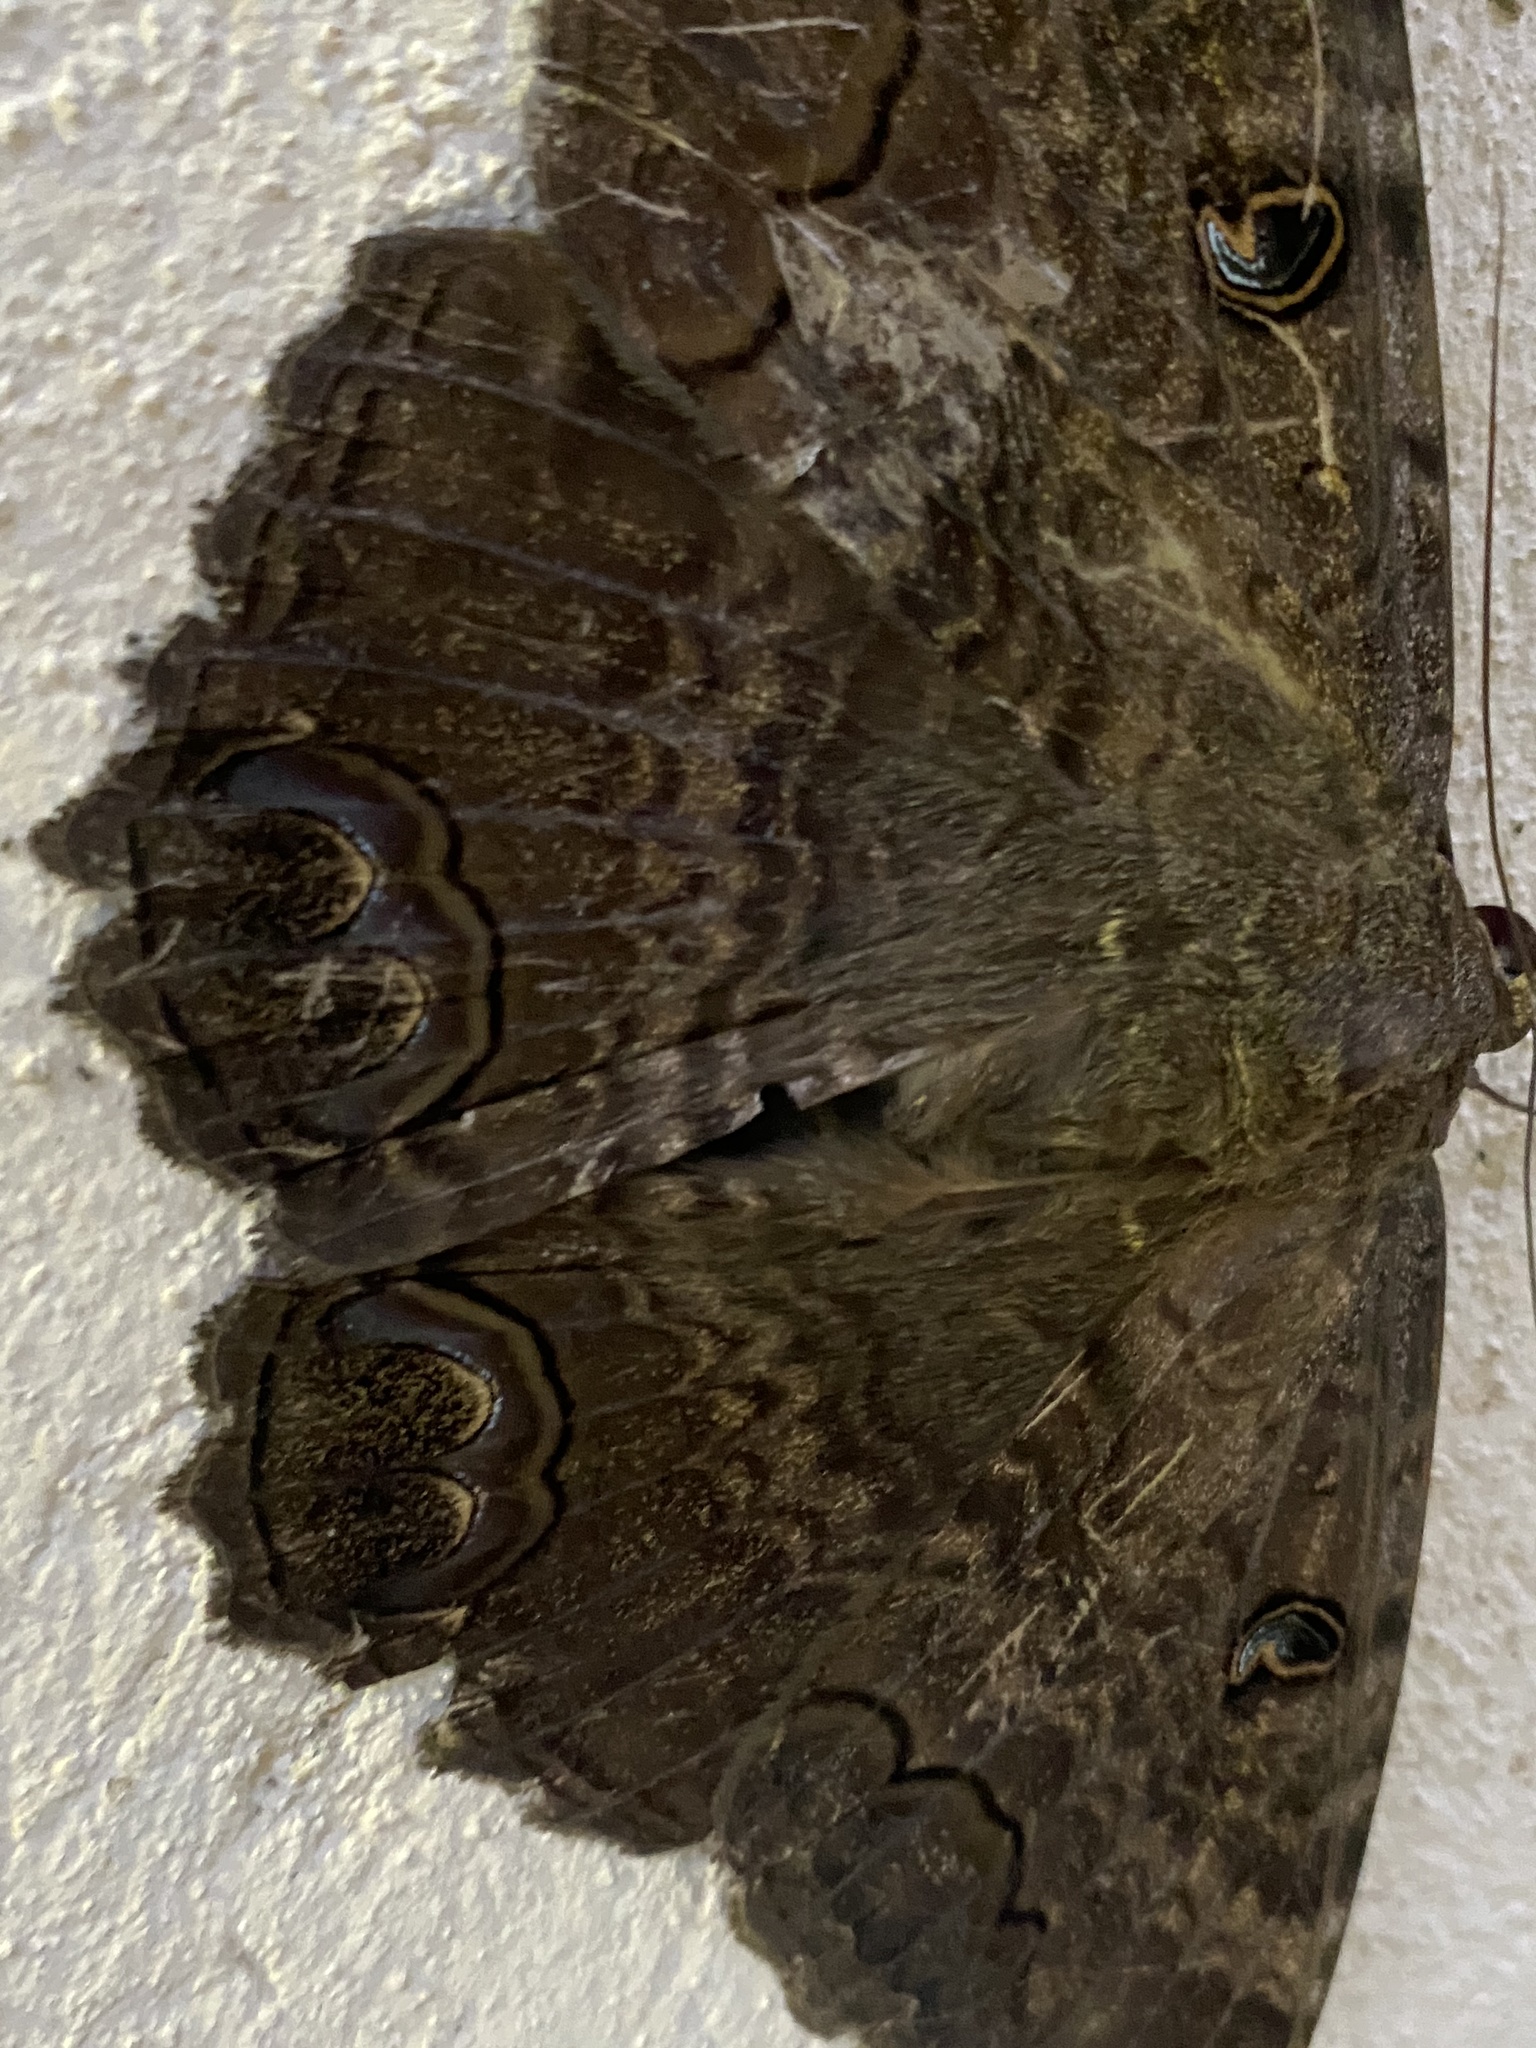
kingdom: Animalia
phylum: Arthropoda
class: Insecta
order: Lepidoptera
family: Erebidae
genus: Ascalapha
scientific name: Ascalapha odorata
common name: Black witch
